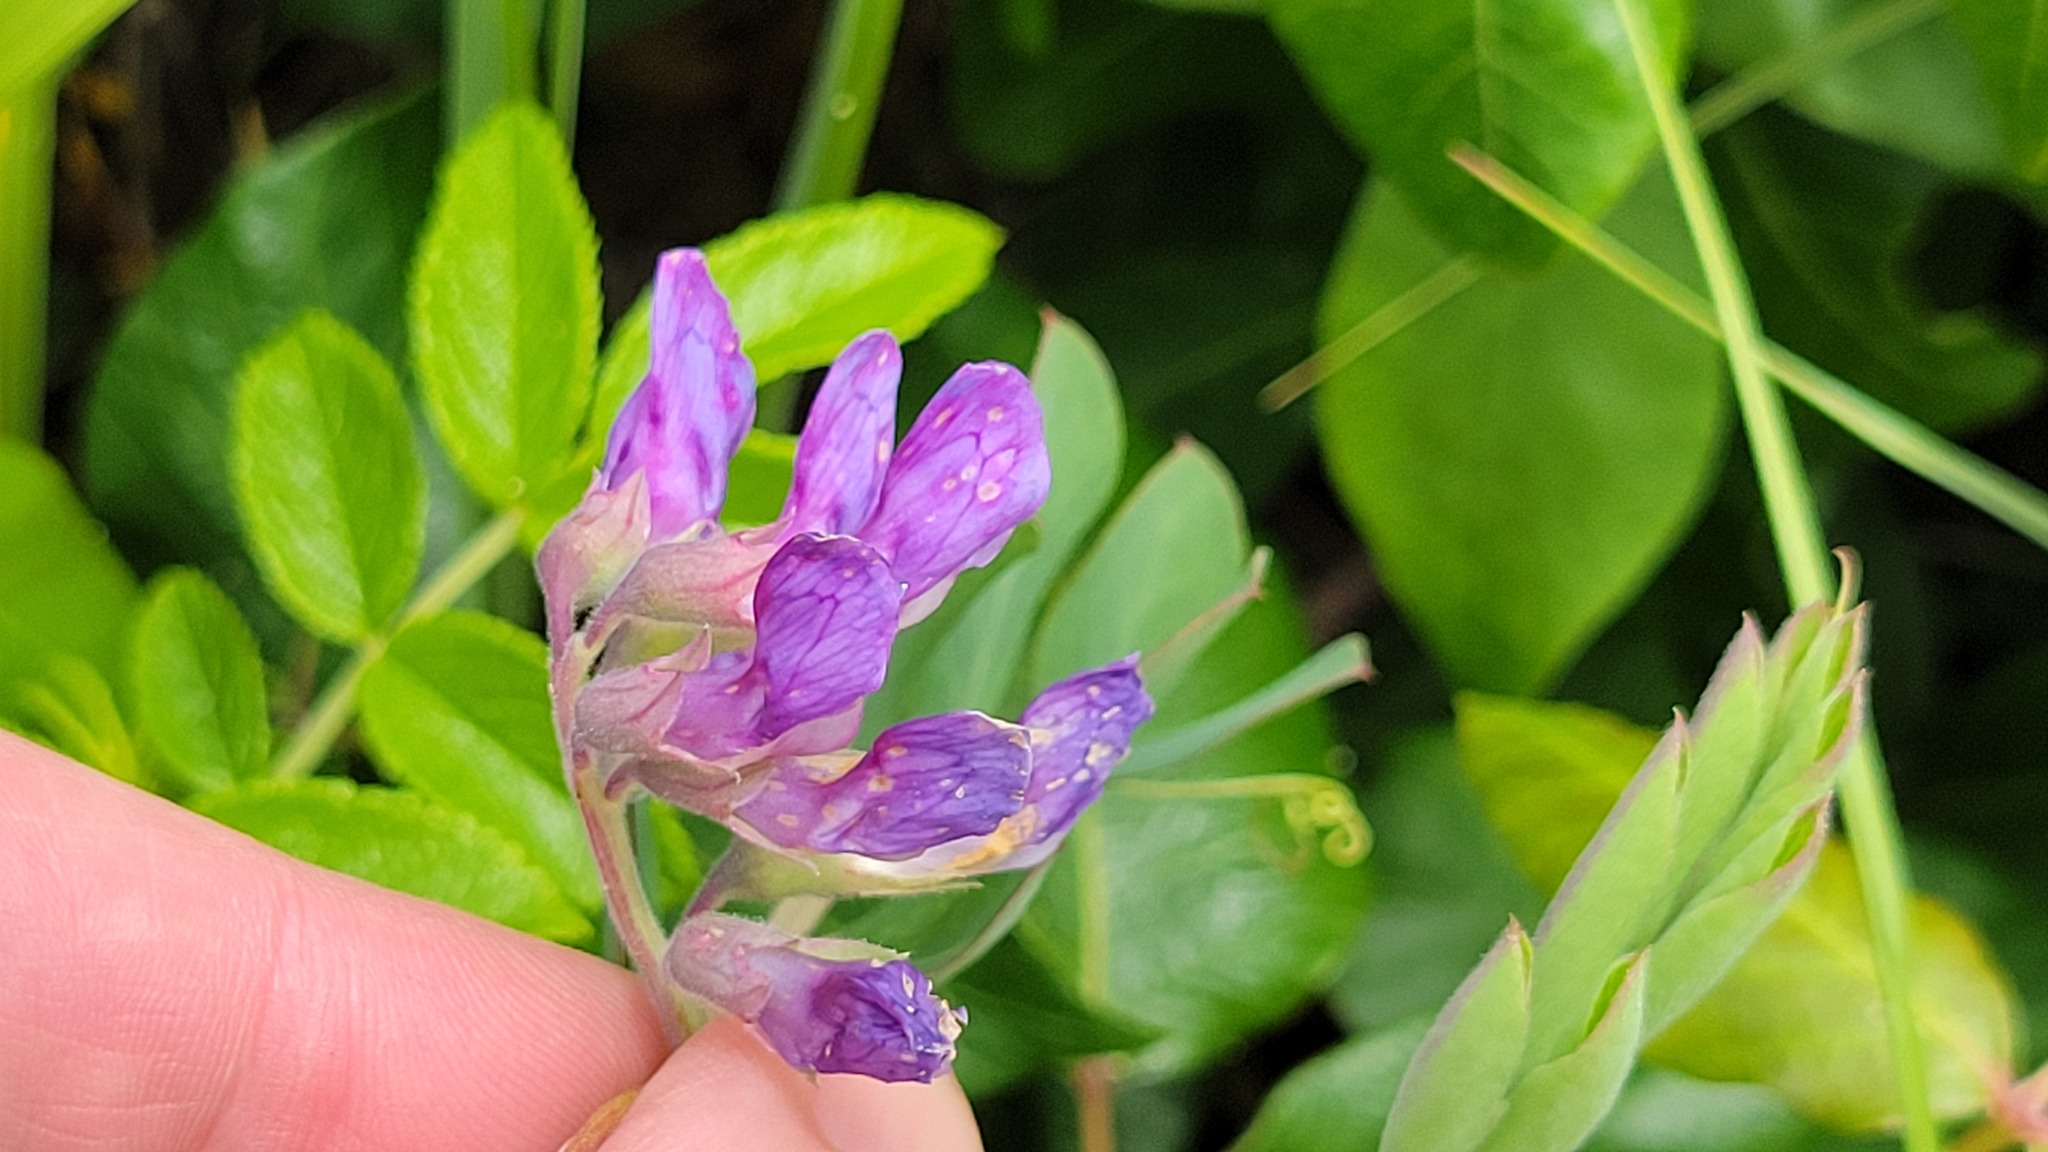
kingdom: Plantae
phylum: Tracheophyta
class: Magnoliopsida
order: Fabales
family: Fabaceae
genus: Lathyrus
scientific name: Lathyrus japonicus
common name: Sea pea
